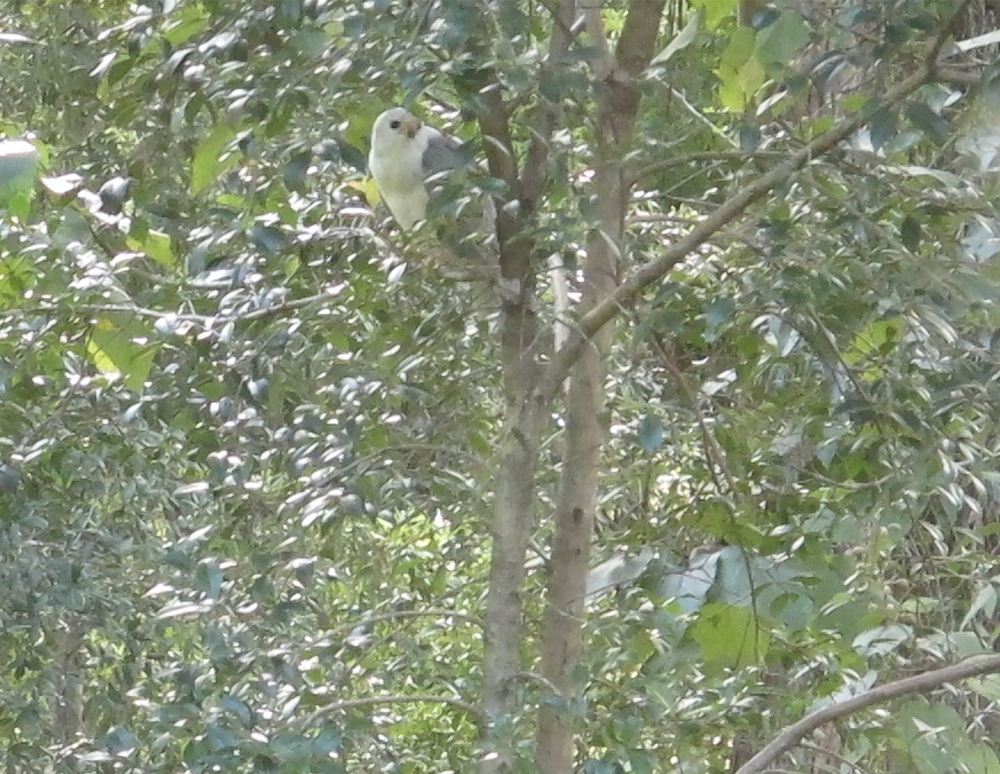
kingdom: Animalia
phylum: Chordata
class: Aves
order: Accipitriformes
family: Accipitridae
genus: Accipiter
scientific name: Accipiter novaehollandiae
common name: Grey goshawk
